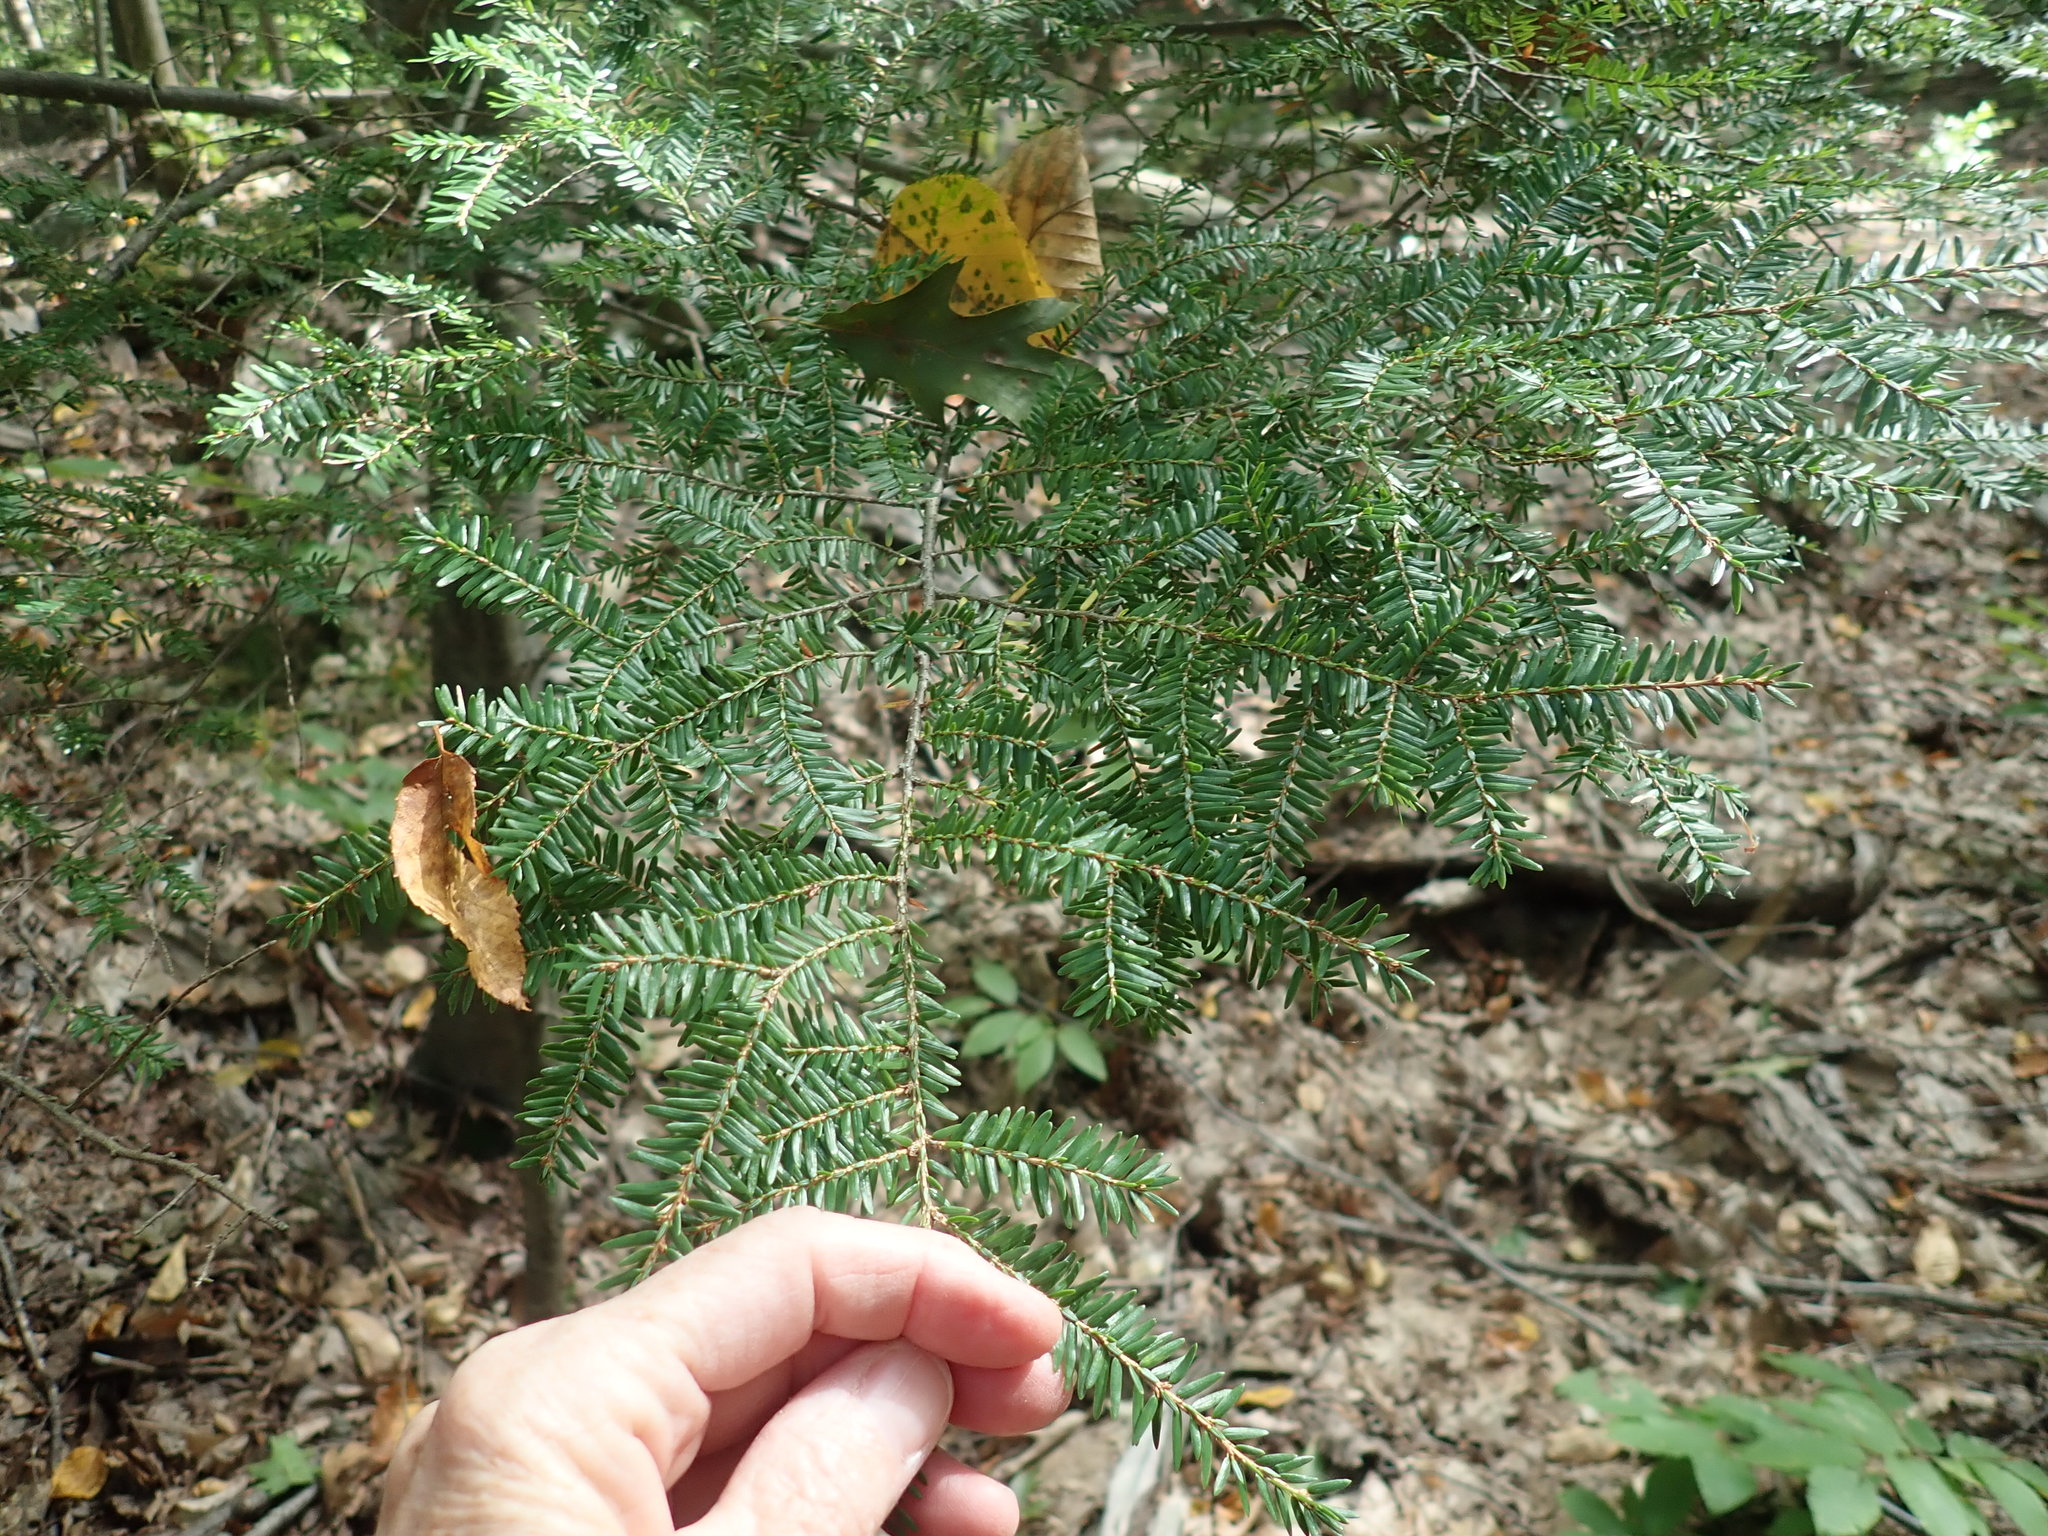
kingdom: Plantae
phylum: Tracheophyta
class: Pinopsida
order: Pinales
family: Pinaceae
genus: Tsuga
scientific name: Tsuga canadensis
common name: Eastern hemlock
